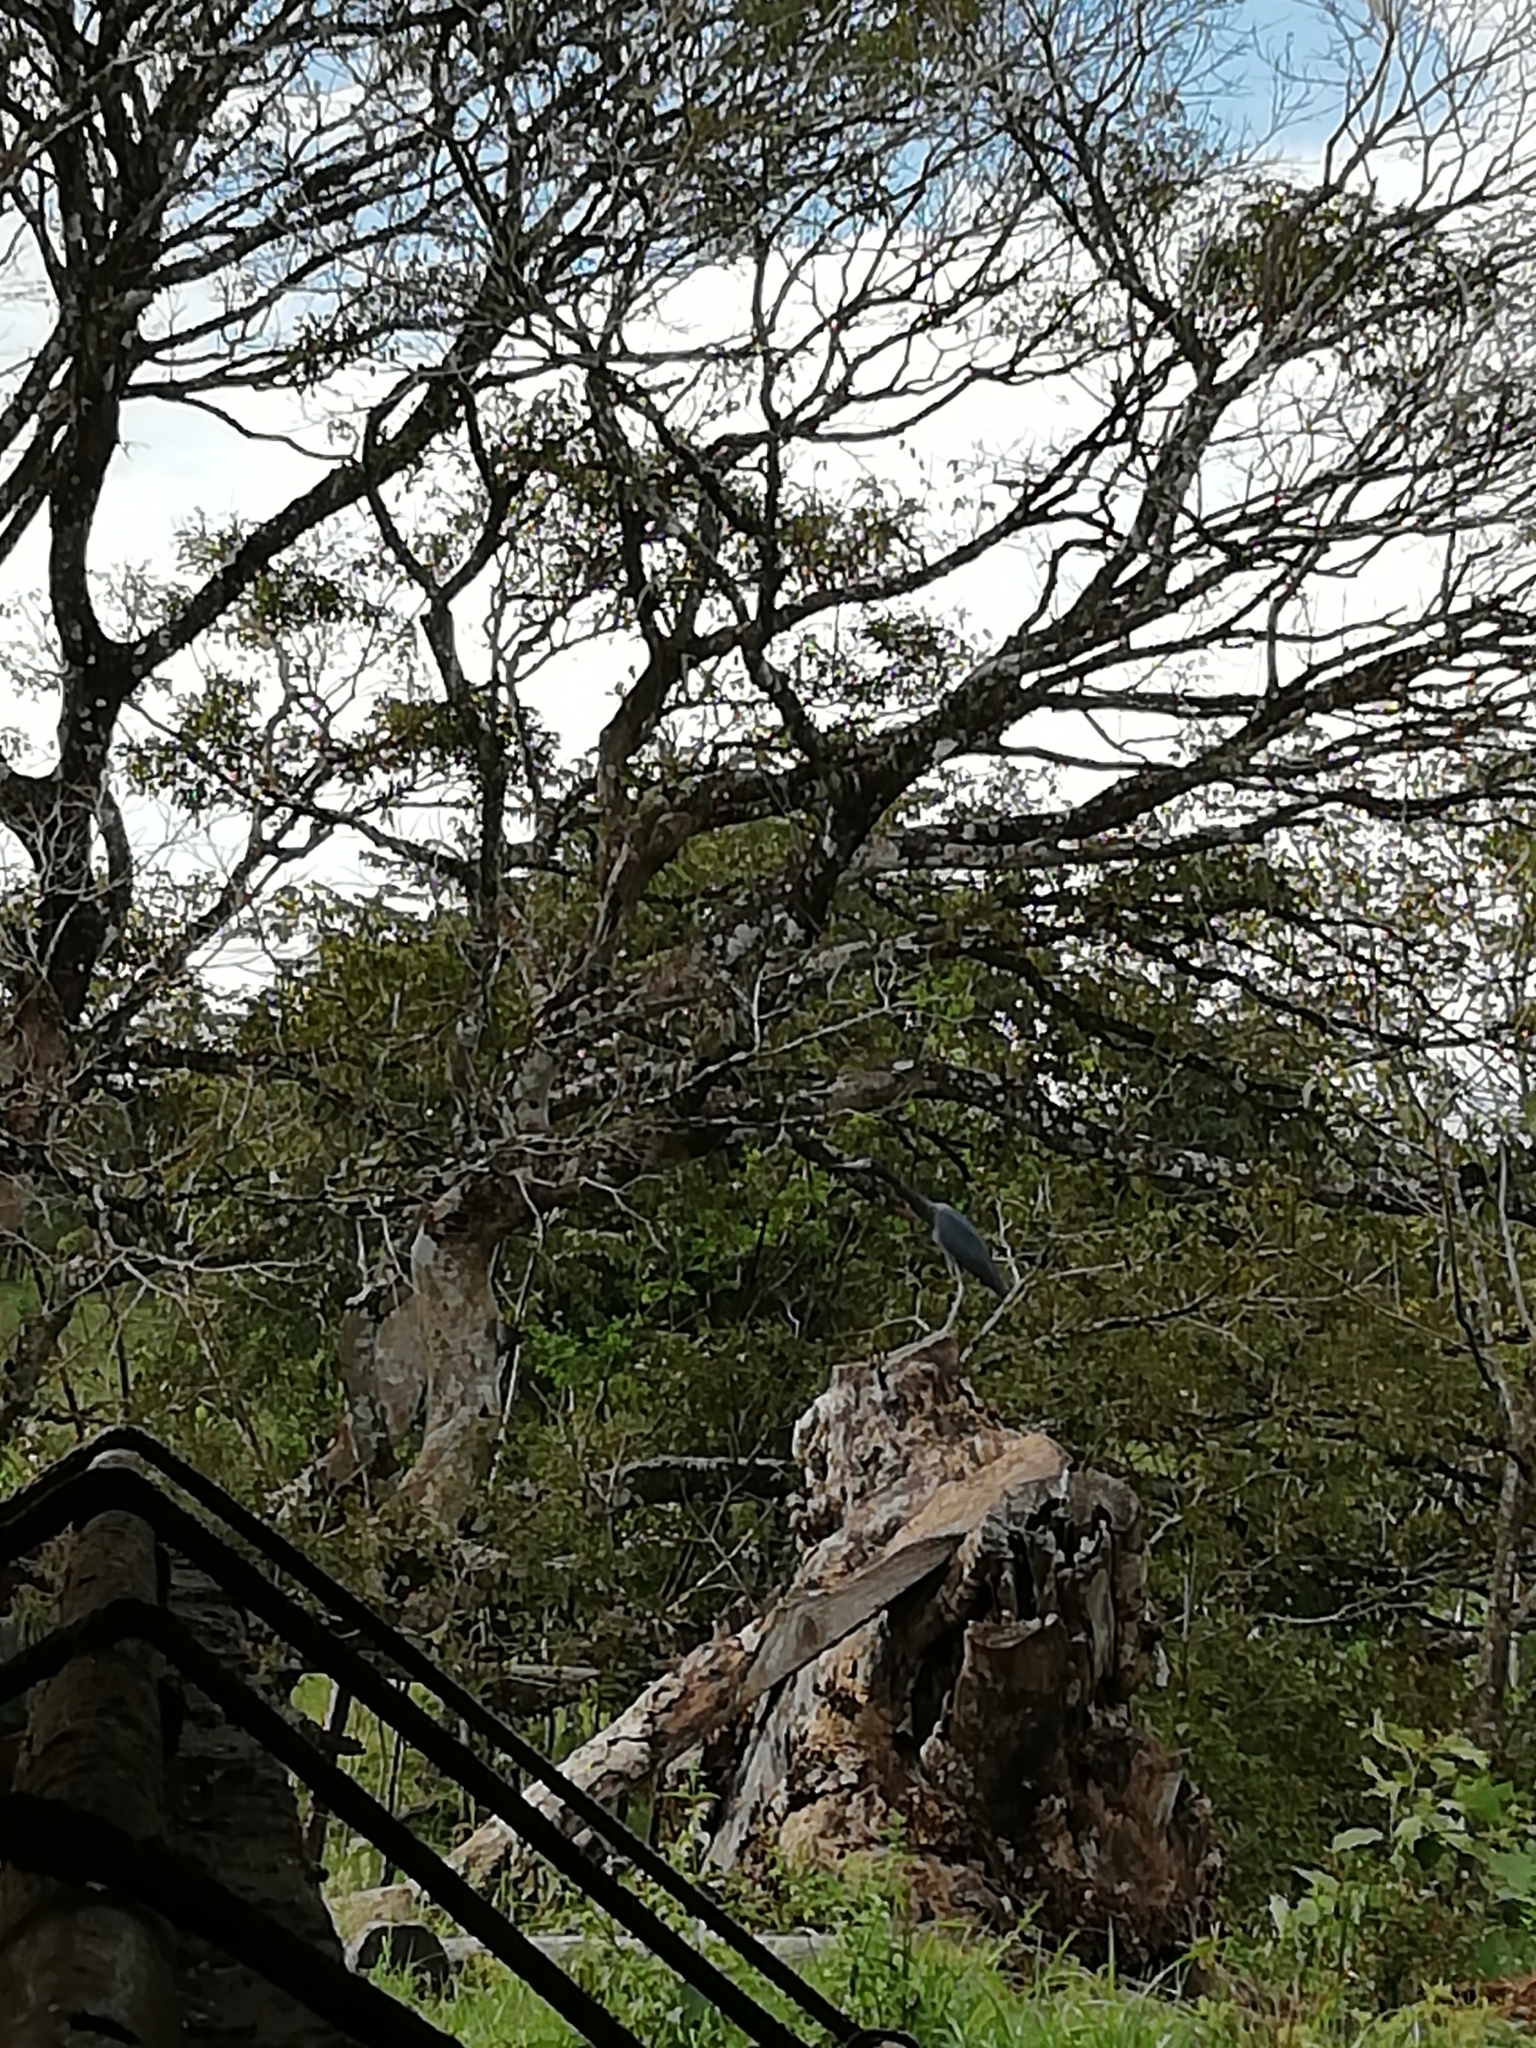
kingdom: Animalia
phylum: Chordata
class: Aves
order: Pelecaniformes
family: Ardeidae
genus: Egretta
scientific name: Egretta caerulea
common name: Little blue heron
